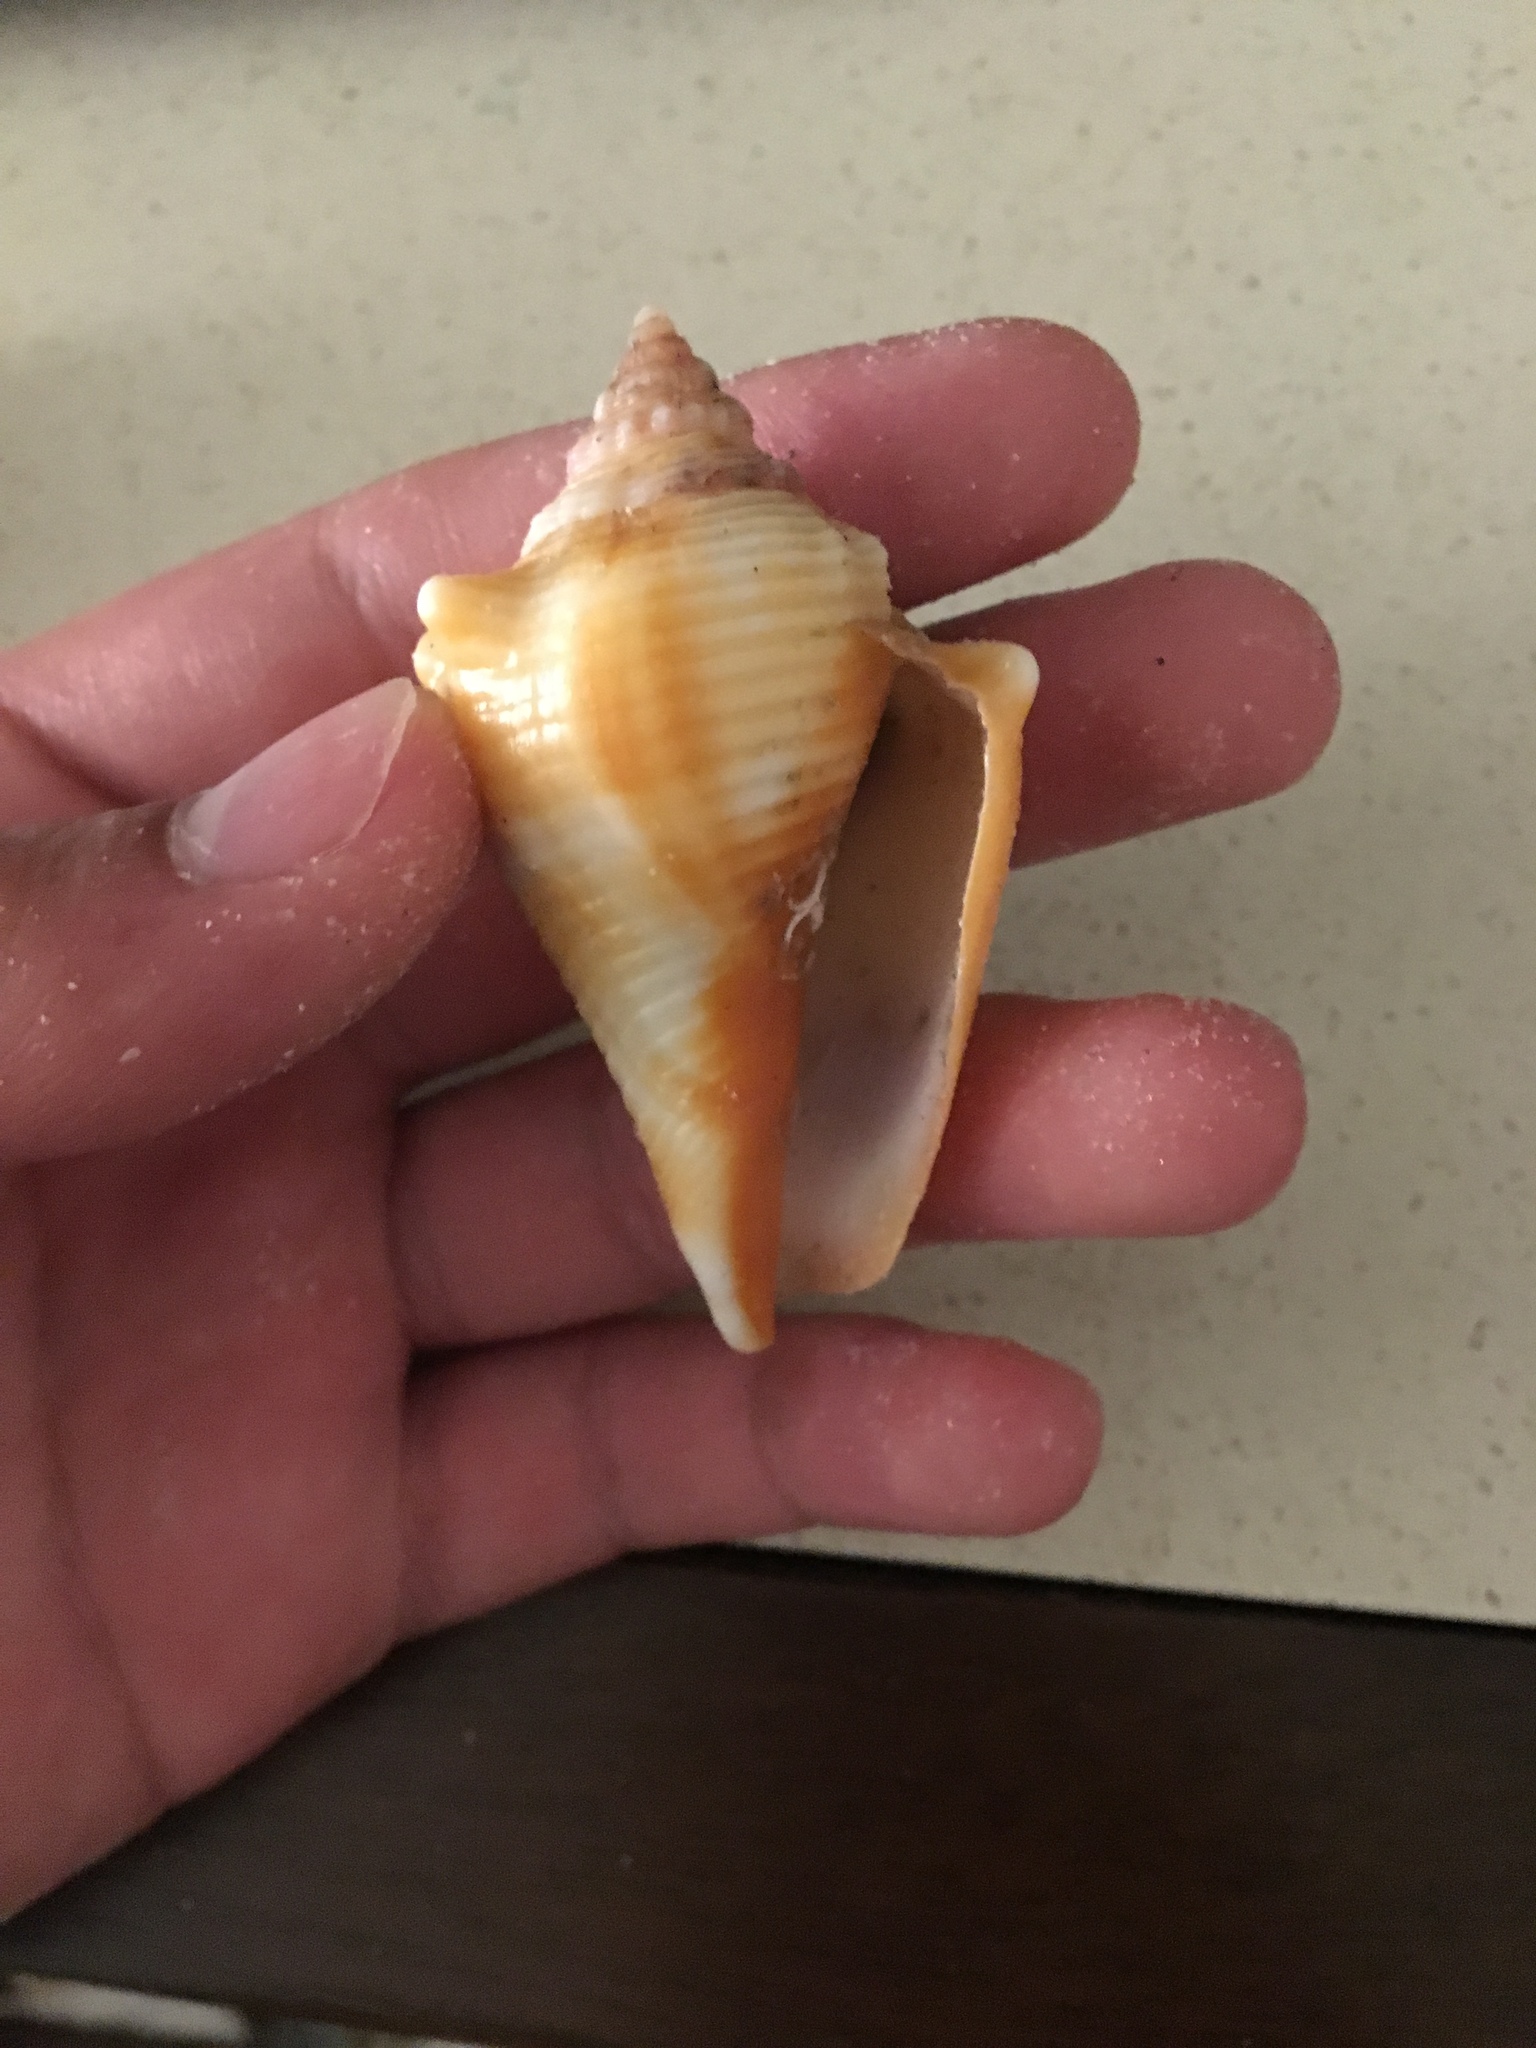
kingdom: Animalia
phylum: Mollusca
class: Gastropoda
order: Littorinimorpha
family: Strombidae
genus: Strombus
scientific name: Strombus alatus
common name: Florida fighting conch
